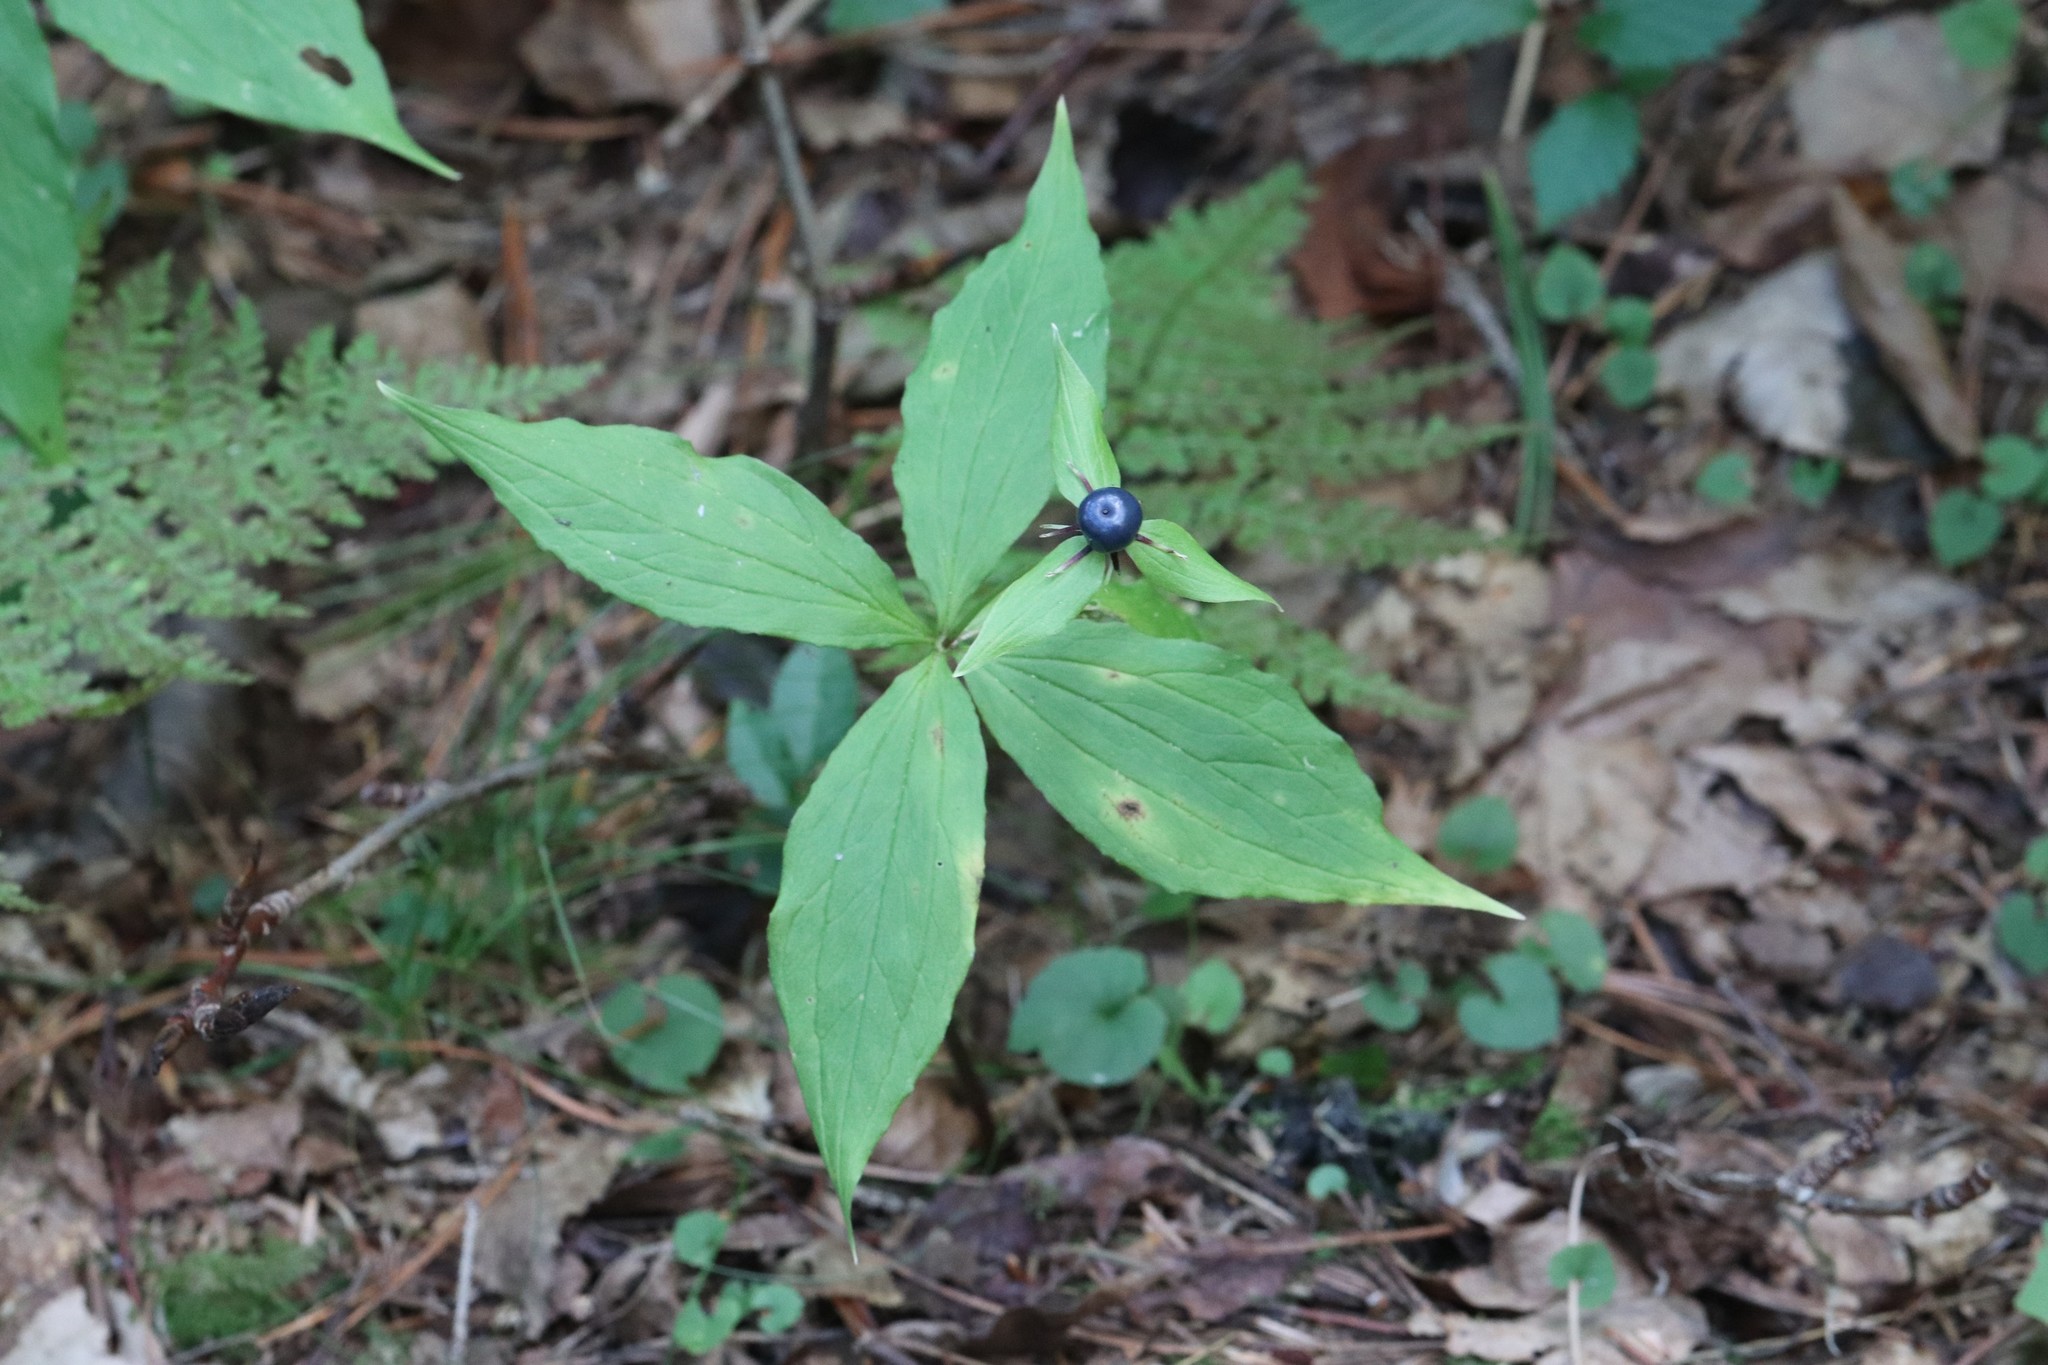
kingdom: Plantae
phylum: Tracheophyta
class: Liliopsida
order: Liliales
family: Melanthiaceae
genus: Paris
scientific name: Paris verticillata
